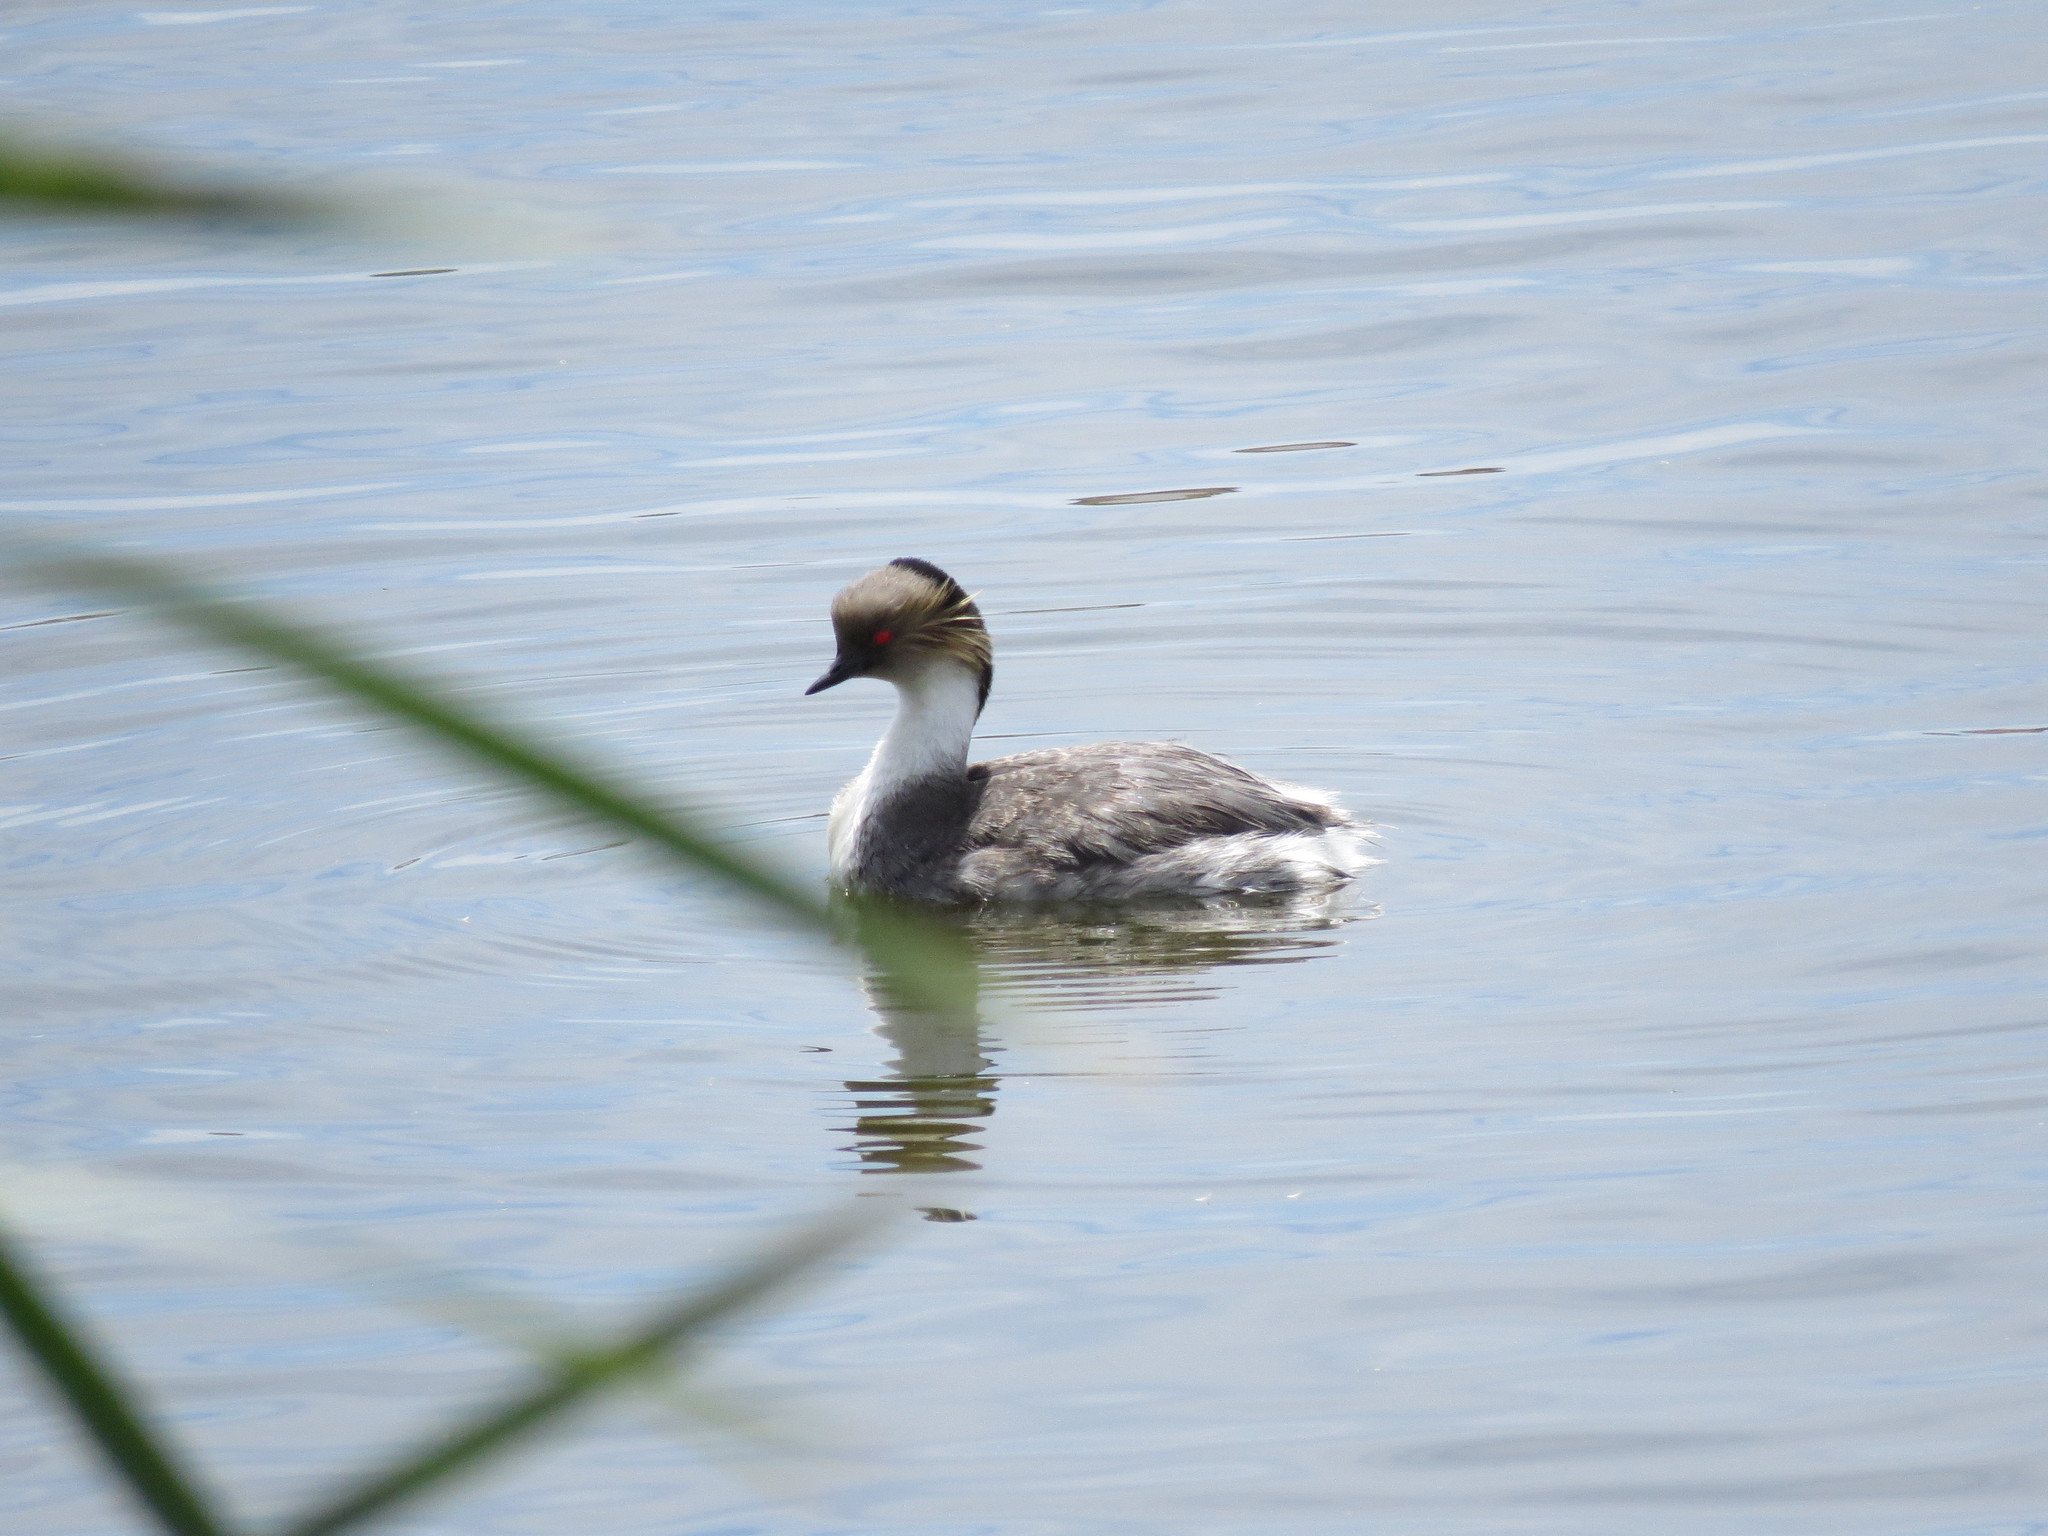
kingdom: Animalia
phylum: Chordata
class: Aves
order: Podicipediformes
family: Podicipedidae
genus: Podiceps
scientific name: Podiceps occipitalis
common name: Silvery grebe
